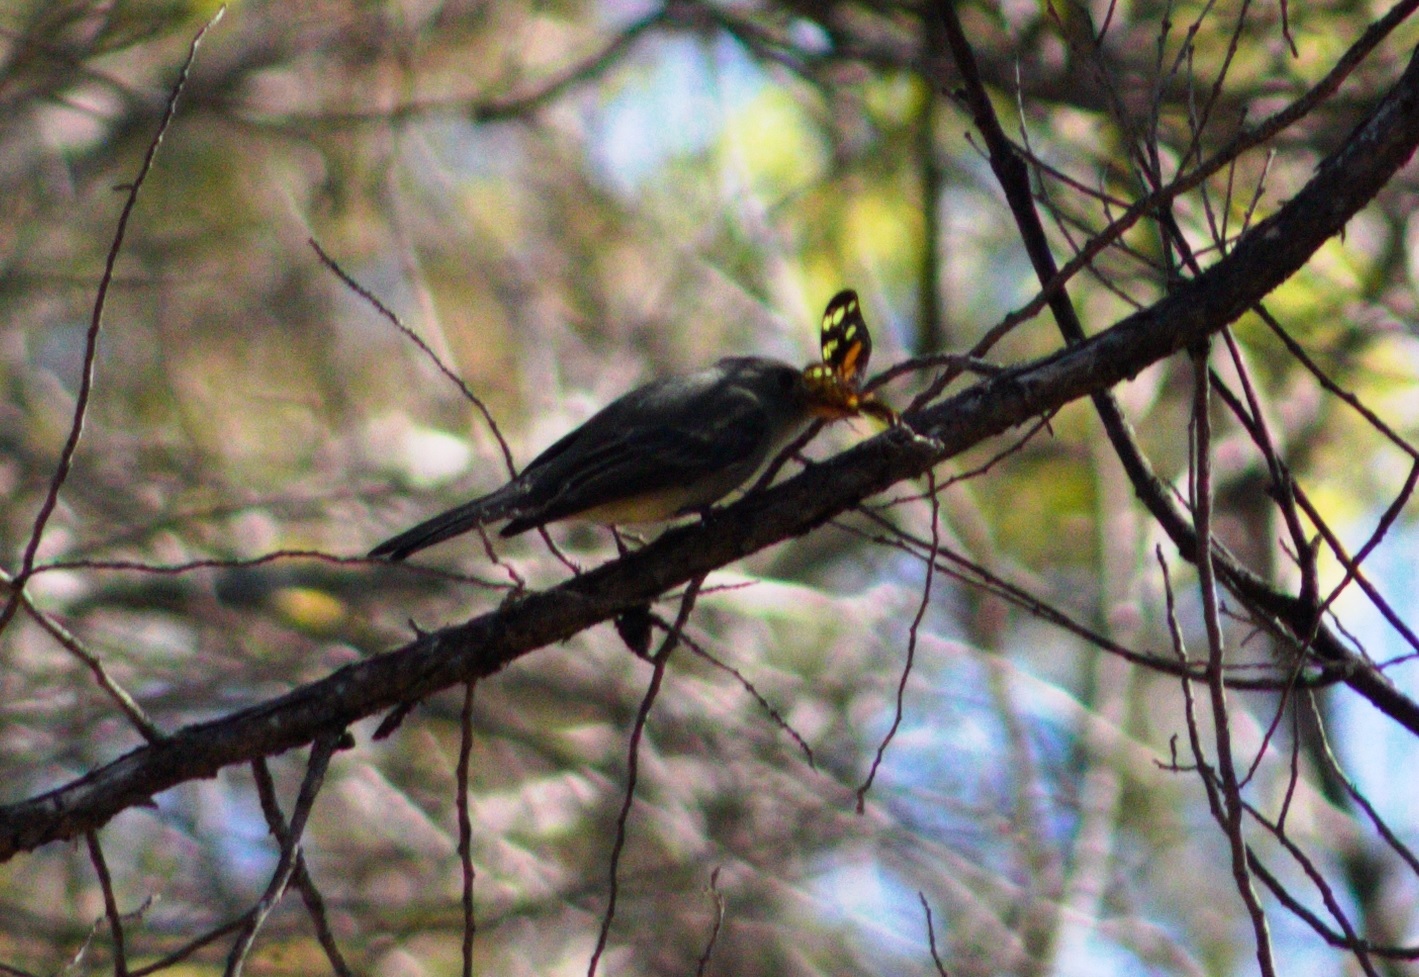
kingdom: Animalia
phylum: Chordata
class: Aves
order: Passeriformes
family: Tyrannidae
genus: Contopus
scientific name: Contopus pertinax
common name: Greater pewee
